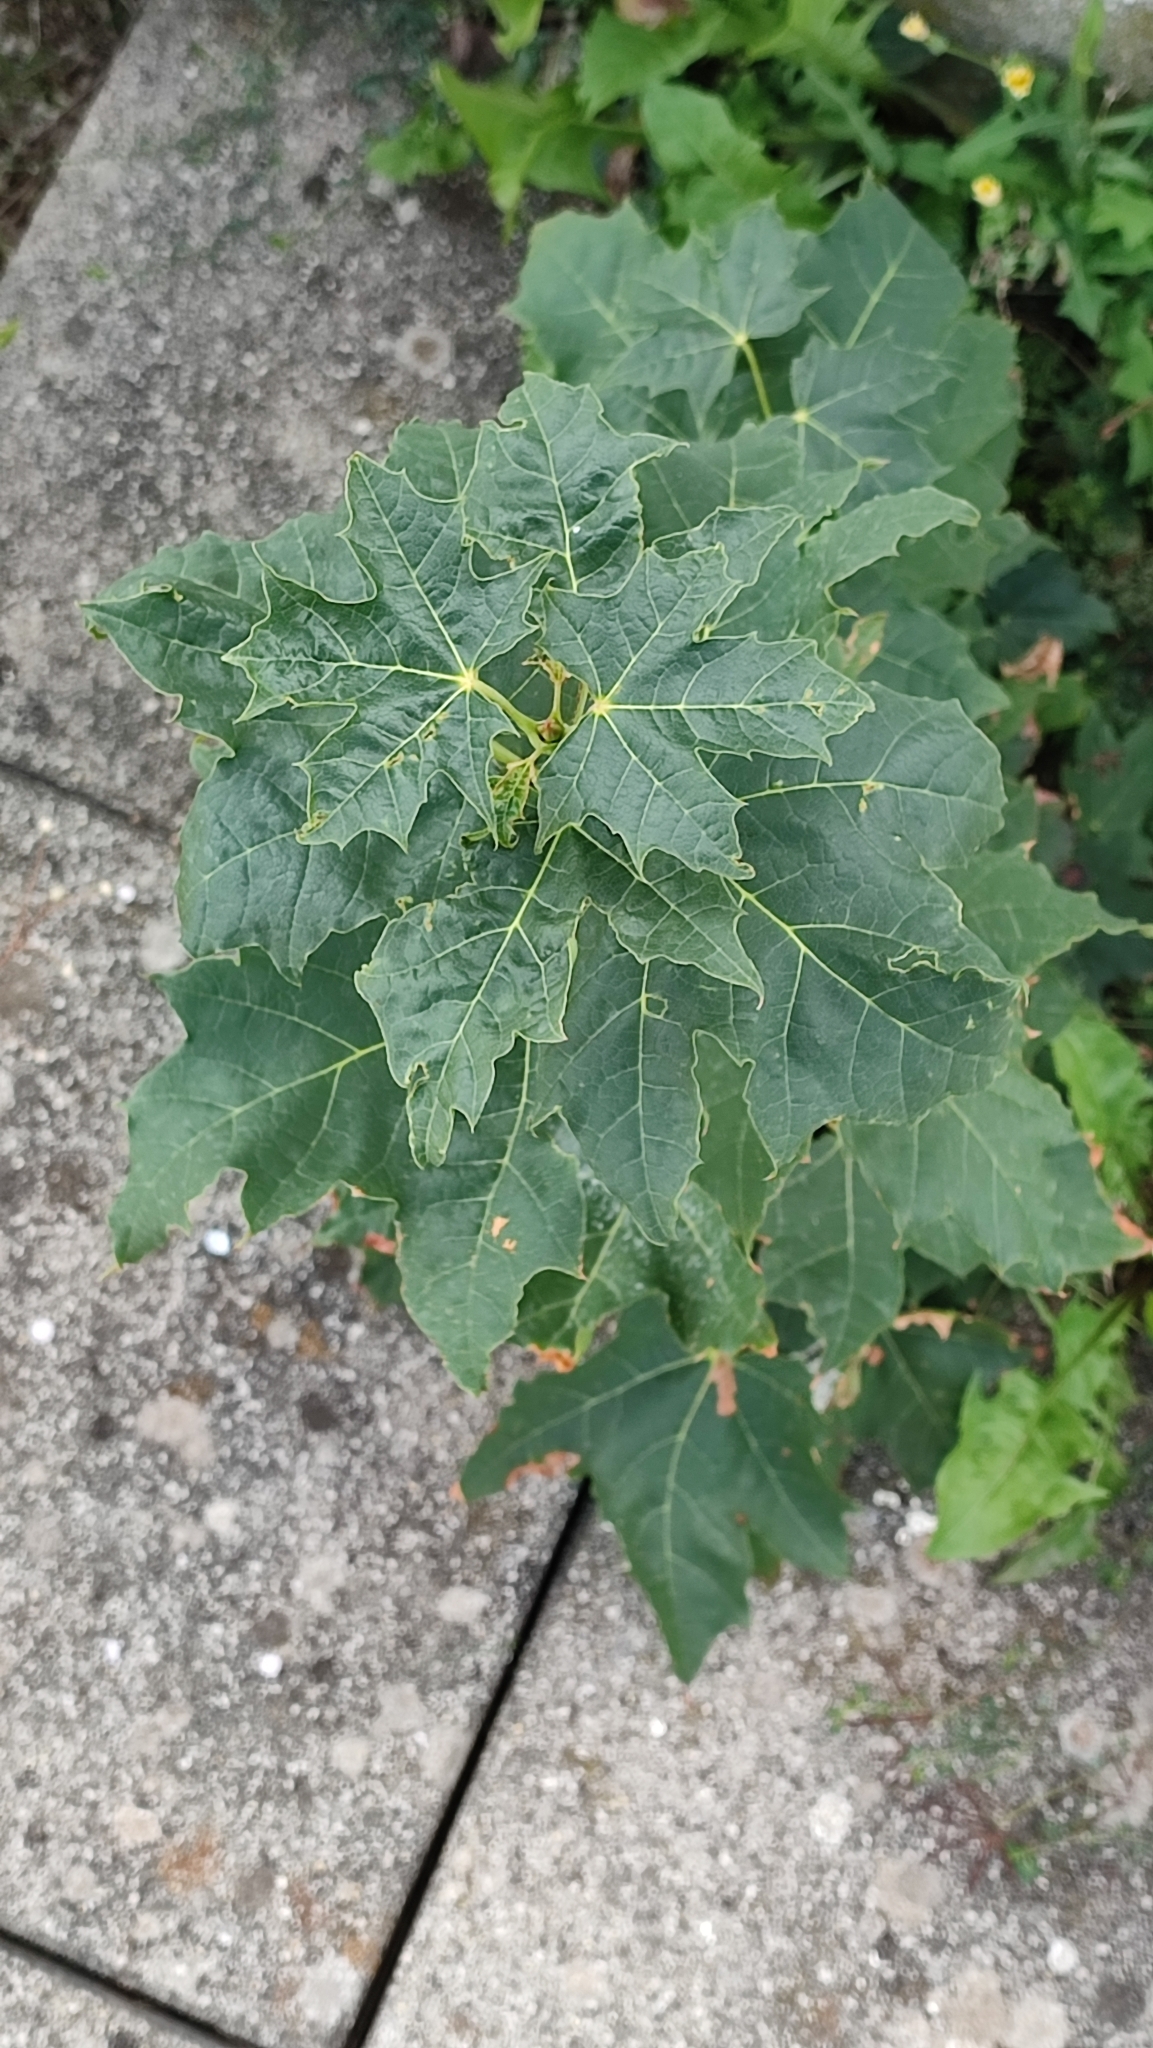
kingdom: Plantae
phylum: Tracheophyta
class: Magnoliopsida
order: Sapindales
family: Sapindaceae
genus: Acer
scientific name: Acer platanoides
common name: Norway maple
